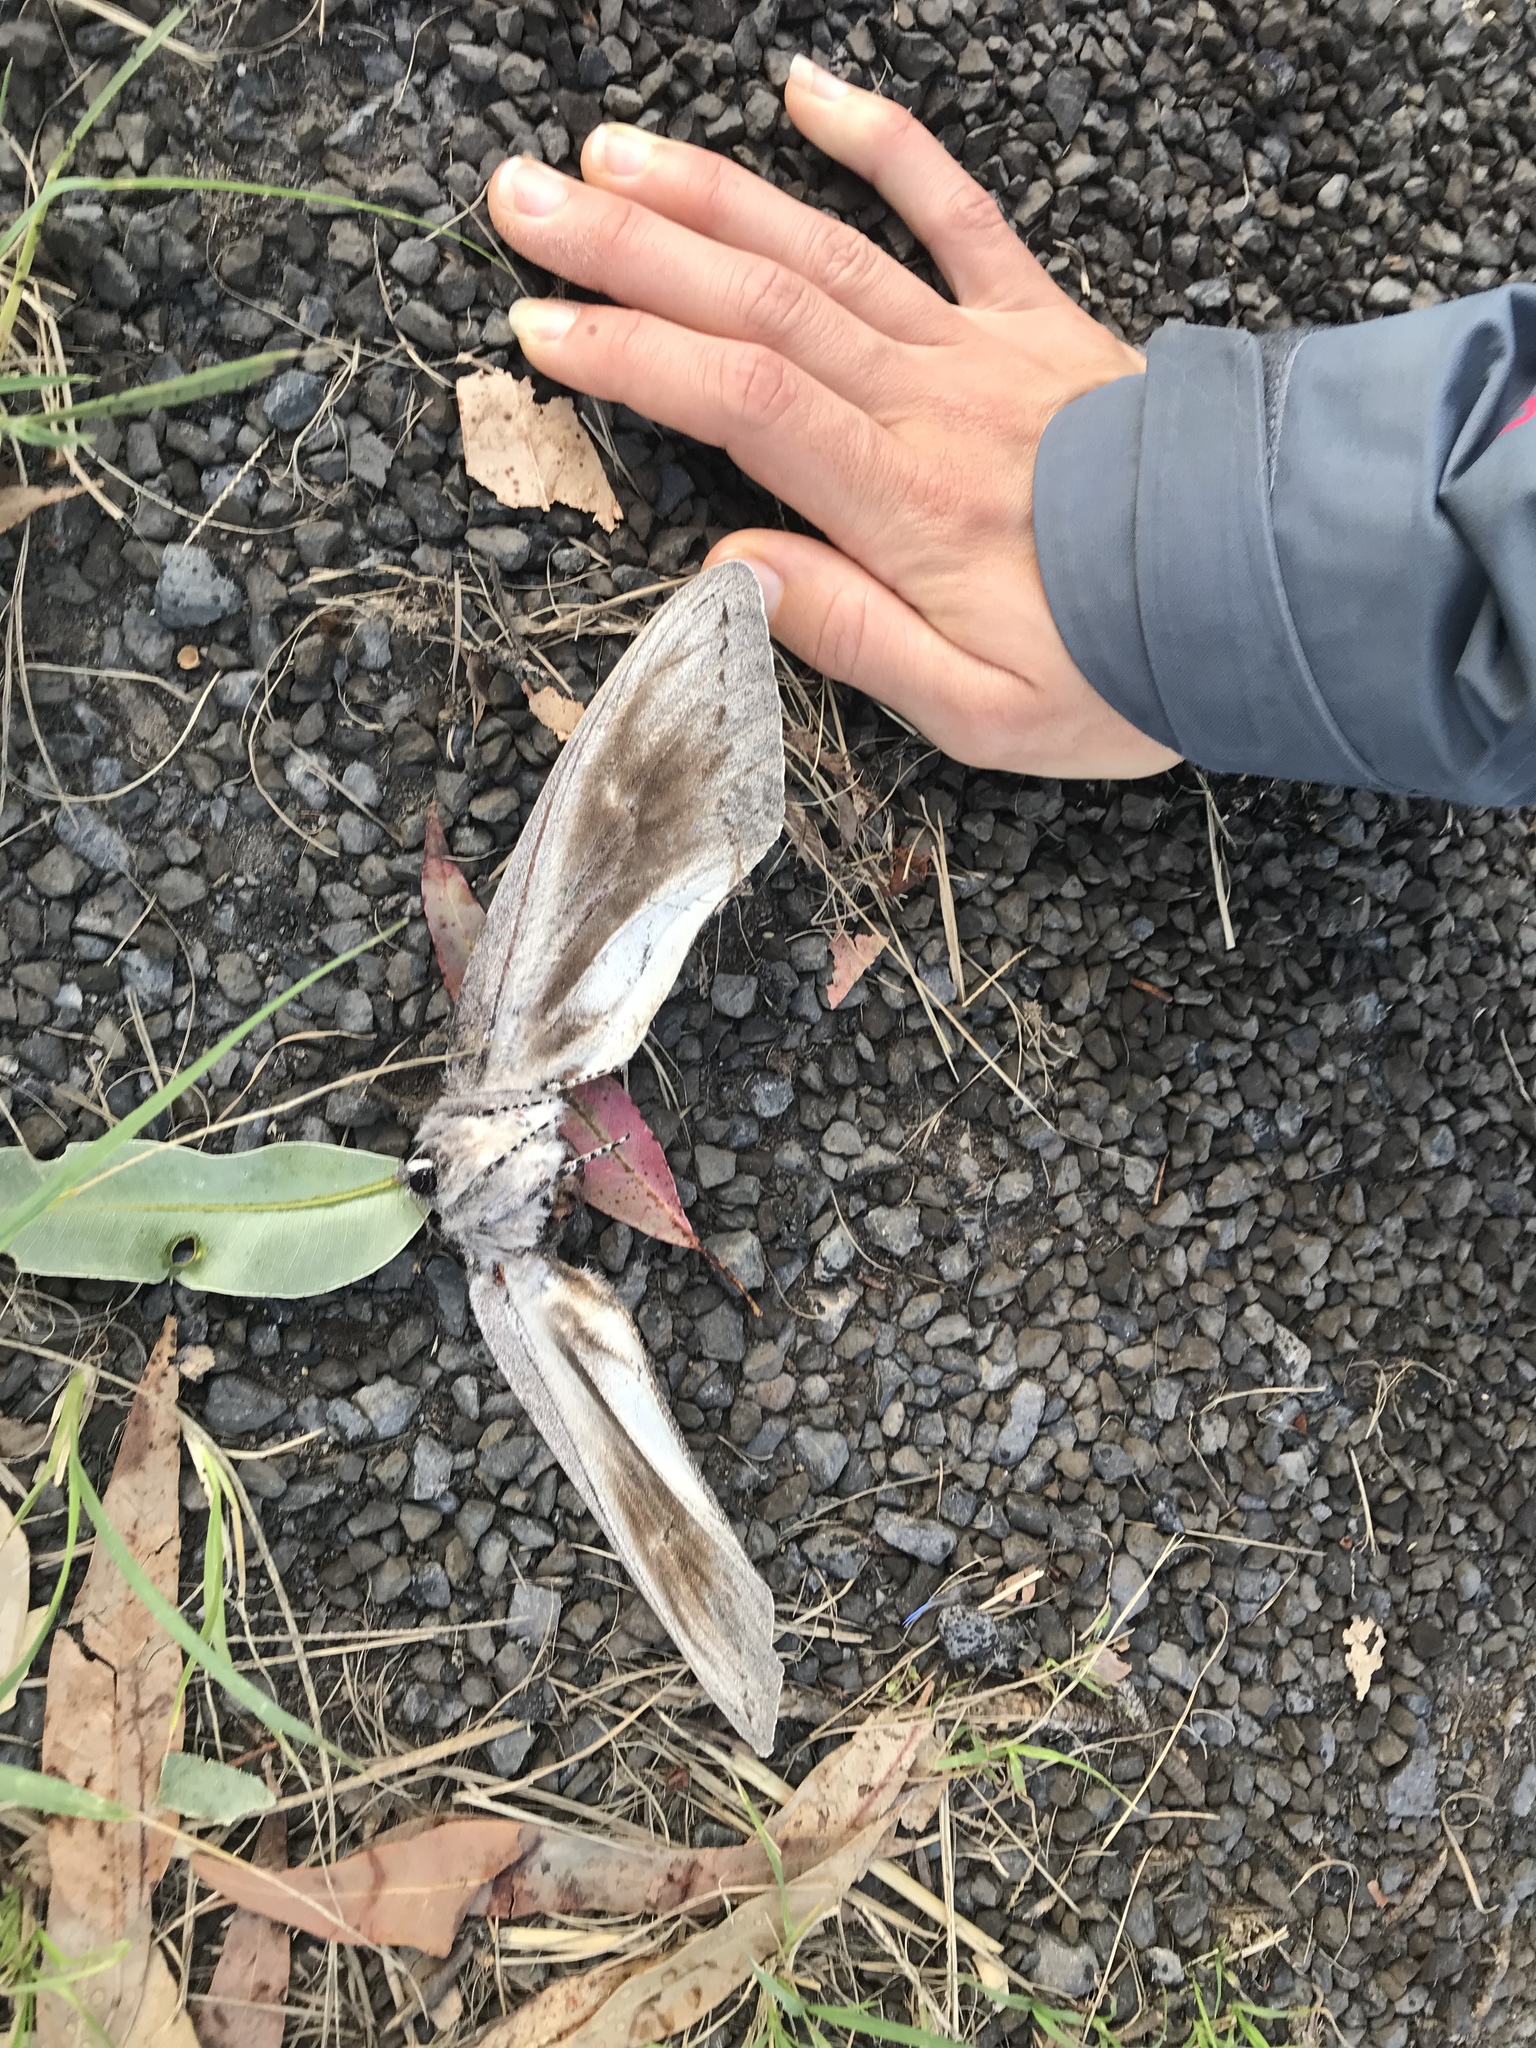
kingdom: Animalia
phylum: Arthropoda
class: Insecta
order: Lepidoptera
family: Cossidae
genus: Endoxyla
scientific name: Endoxyla cinereus
